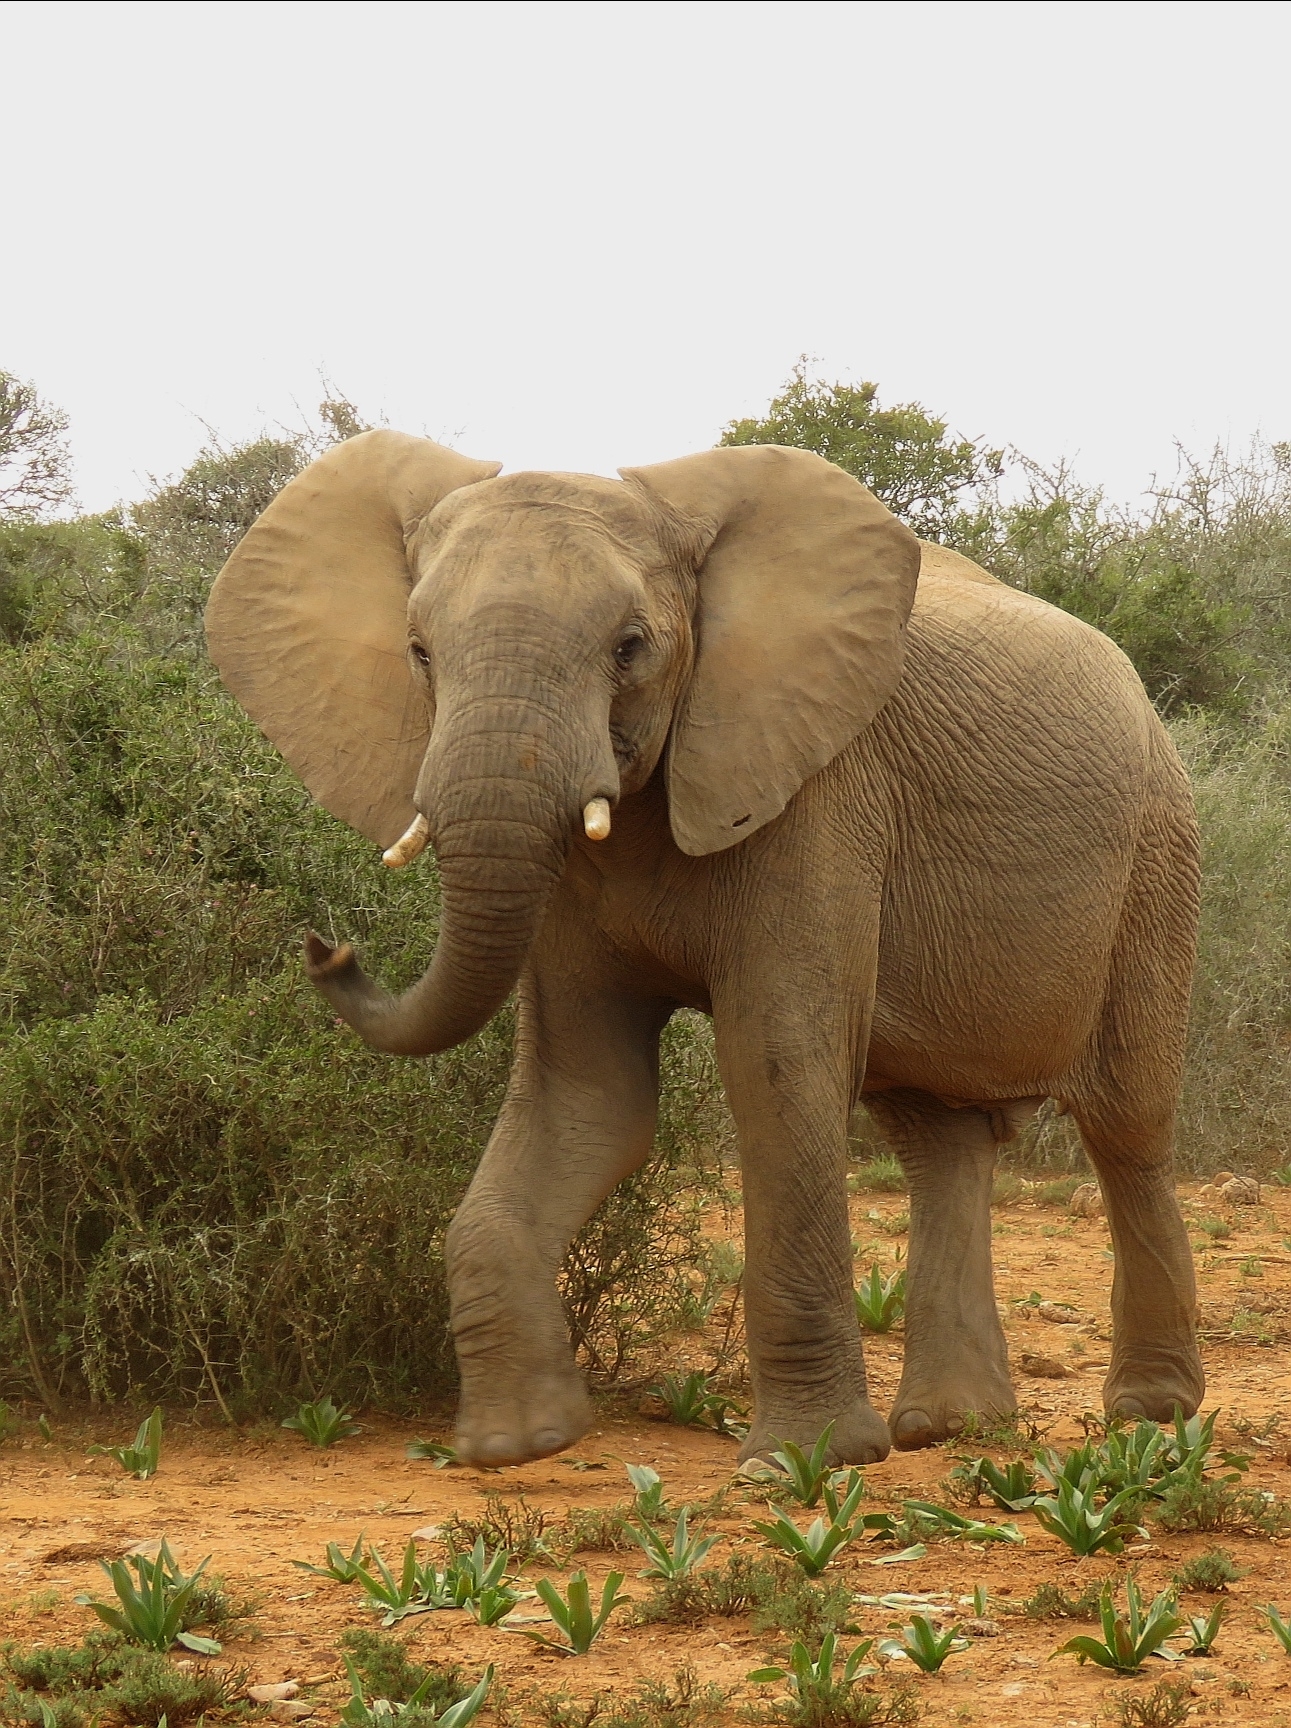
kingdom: Animalia
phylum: Chordata
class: Mammalia
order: Proboscidea
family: Elephantidae
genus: Loxodonta
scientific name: Loxodonta africana
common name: African elephant
